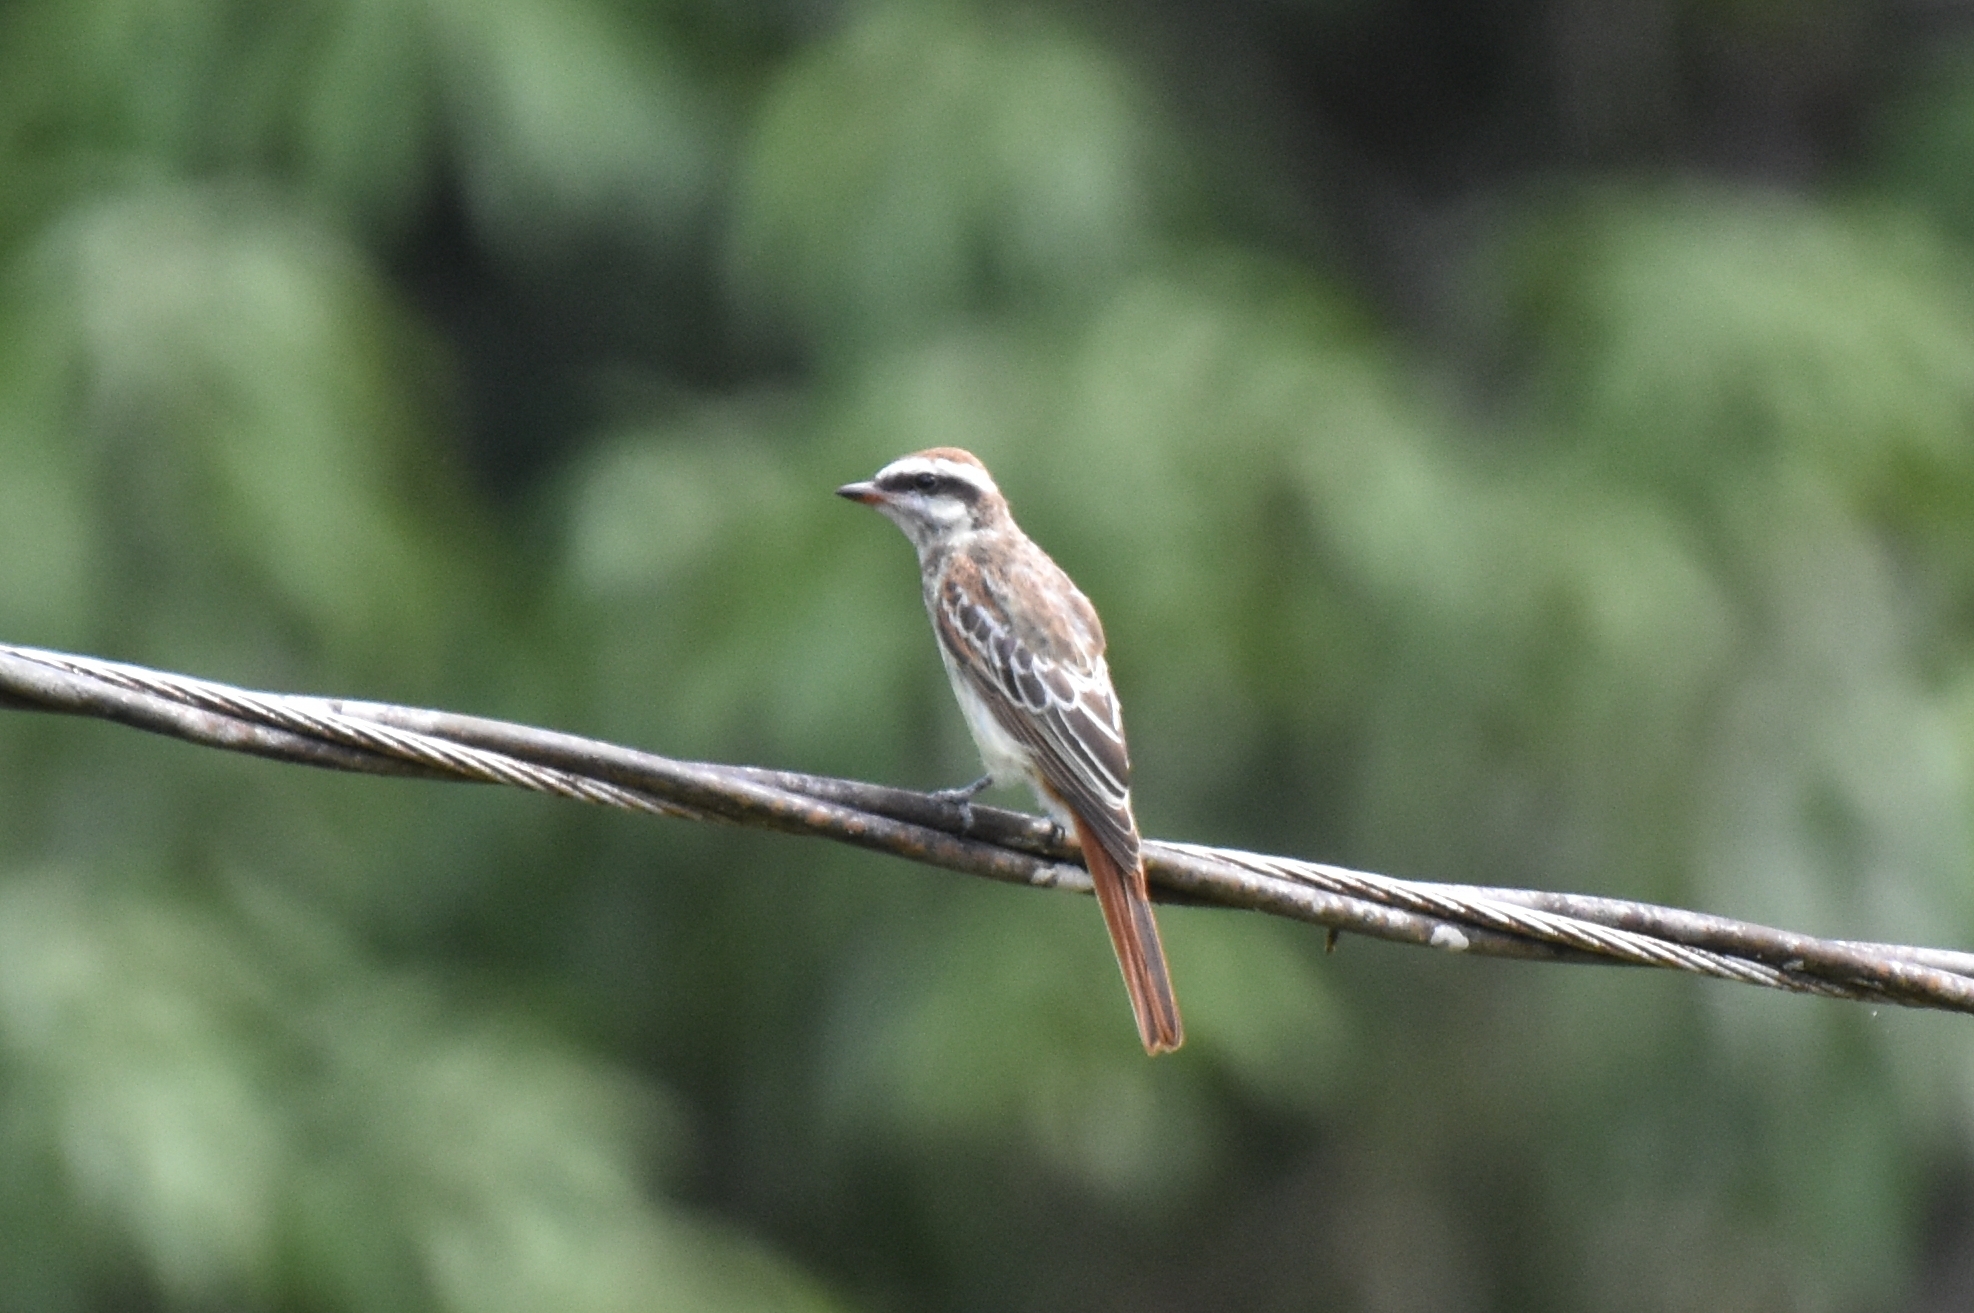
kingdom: Animalia
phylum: Chordata
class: Aves
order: Passeriformes
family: Tyrannidae
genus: Legatus
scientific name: Legatus leucophaius
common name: Piratic flycatcher
